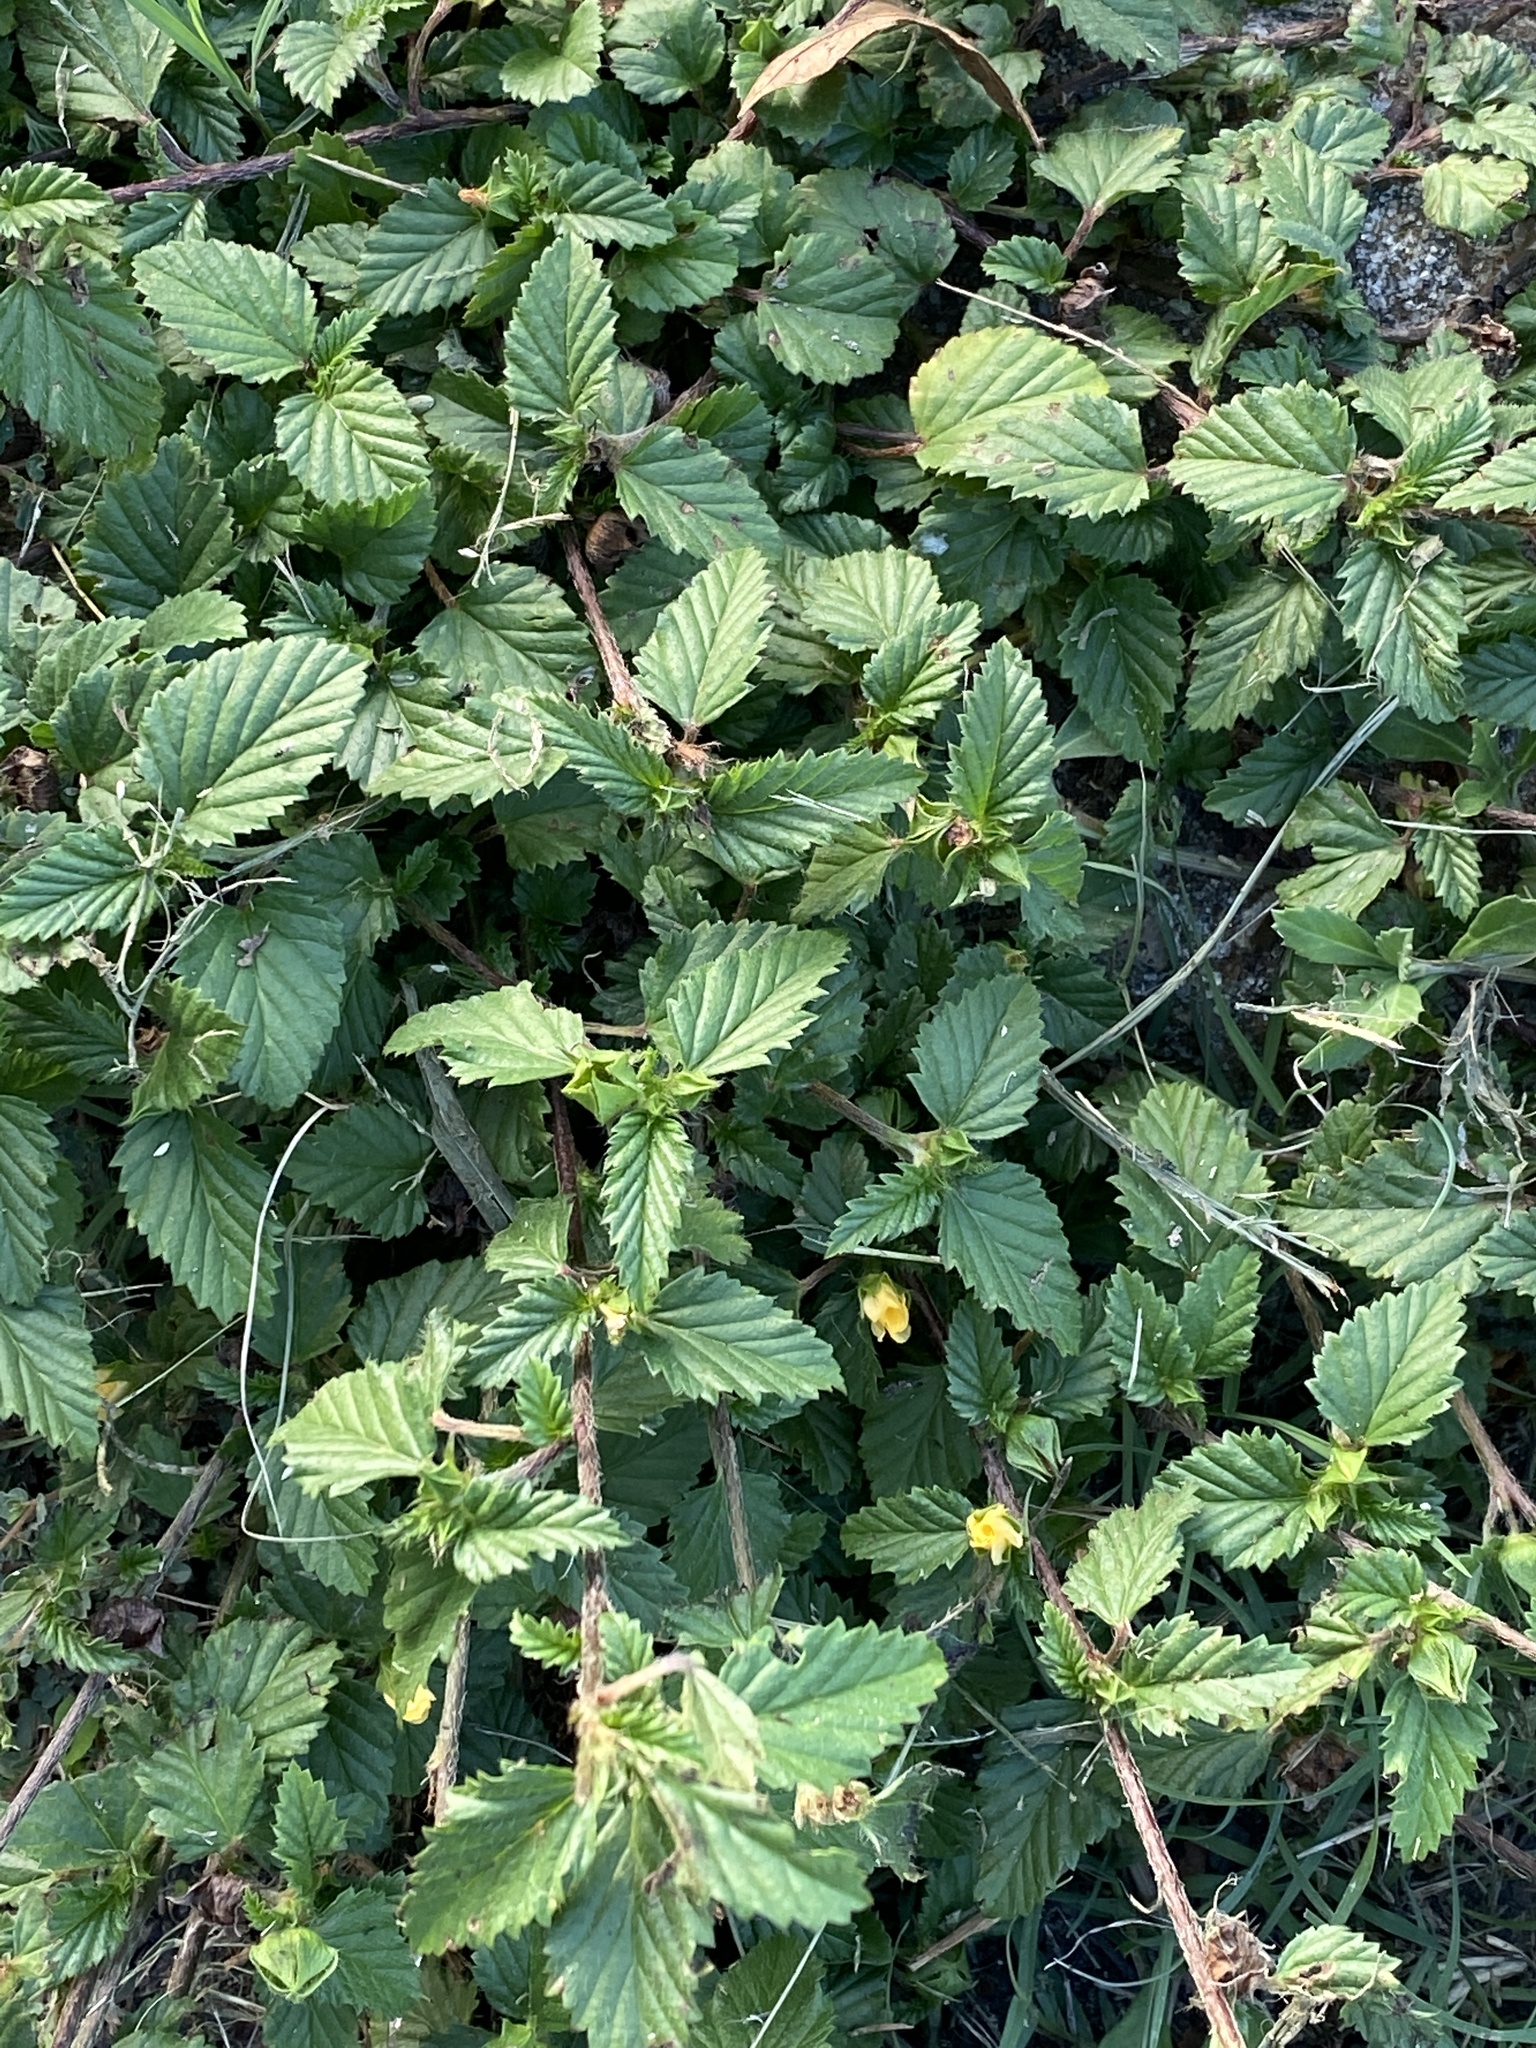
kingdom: Plantae
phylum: Tracheophyta
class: Magnoliopsida
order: Malvales
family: Malvaceae
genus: Malvastrum
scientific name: Malvastrum coromandelianum
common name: Threelobe false mallow
